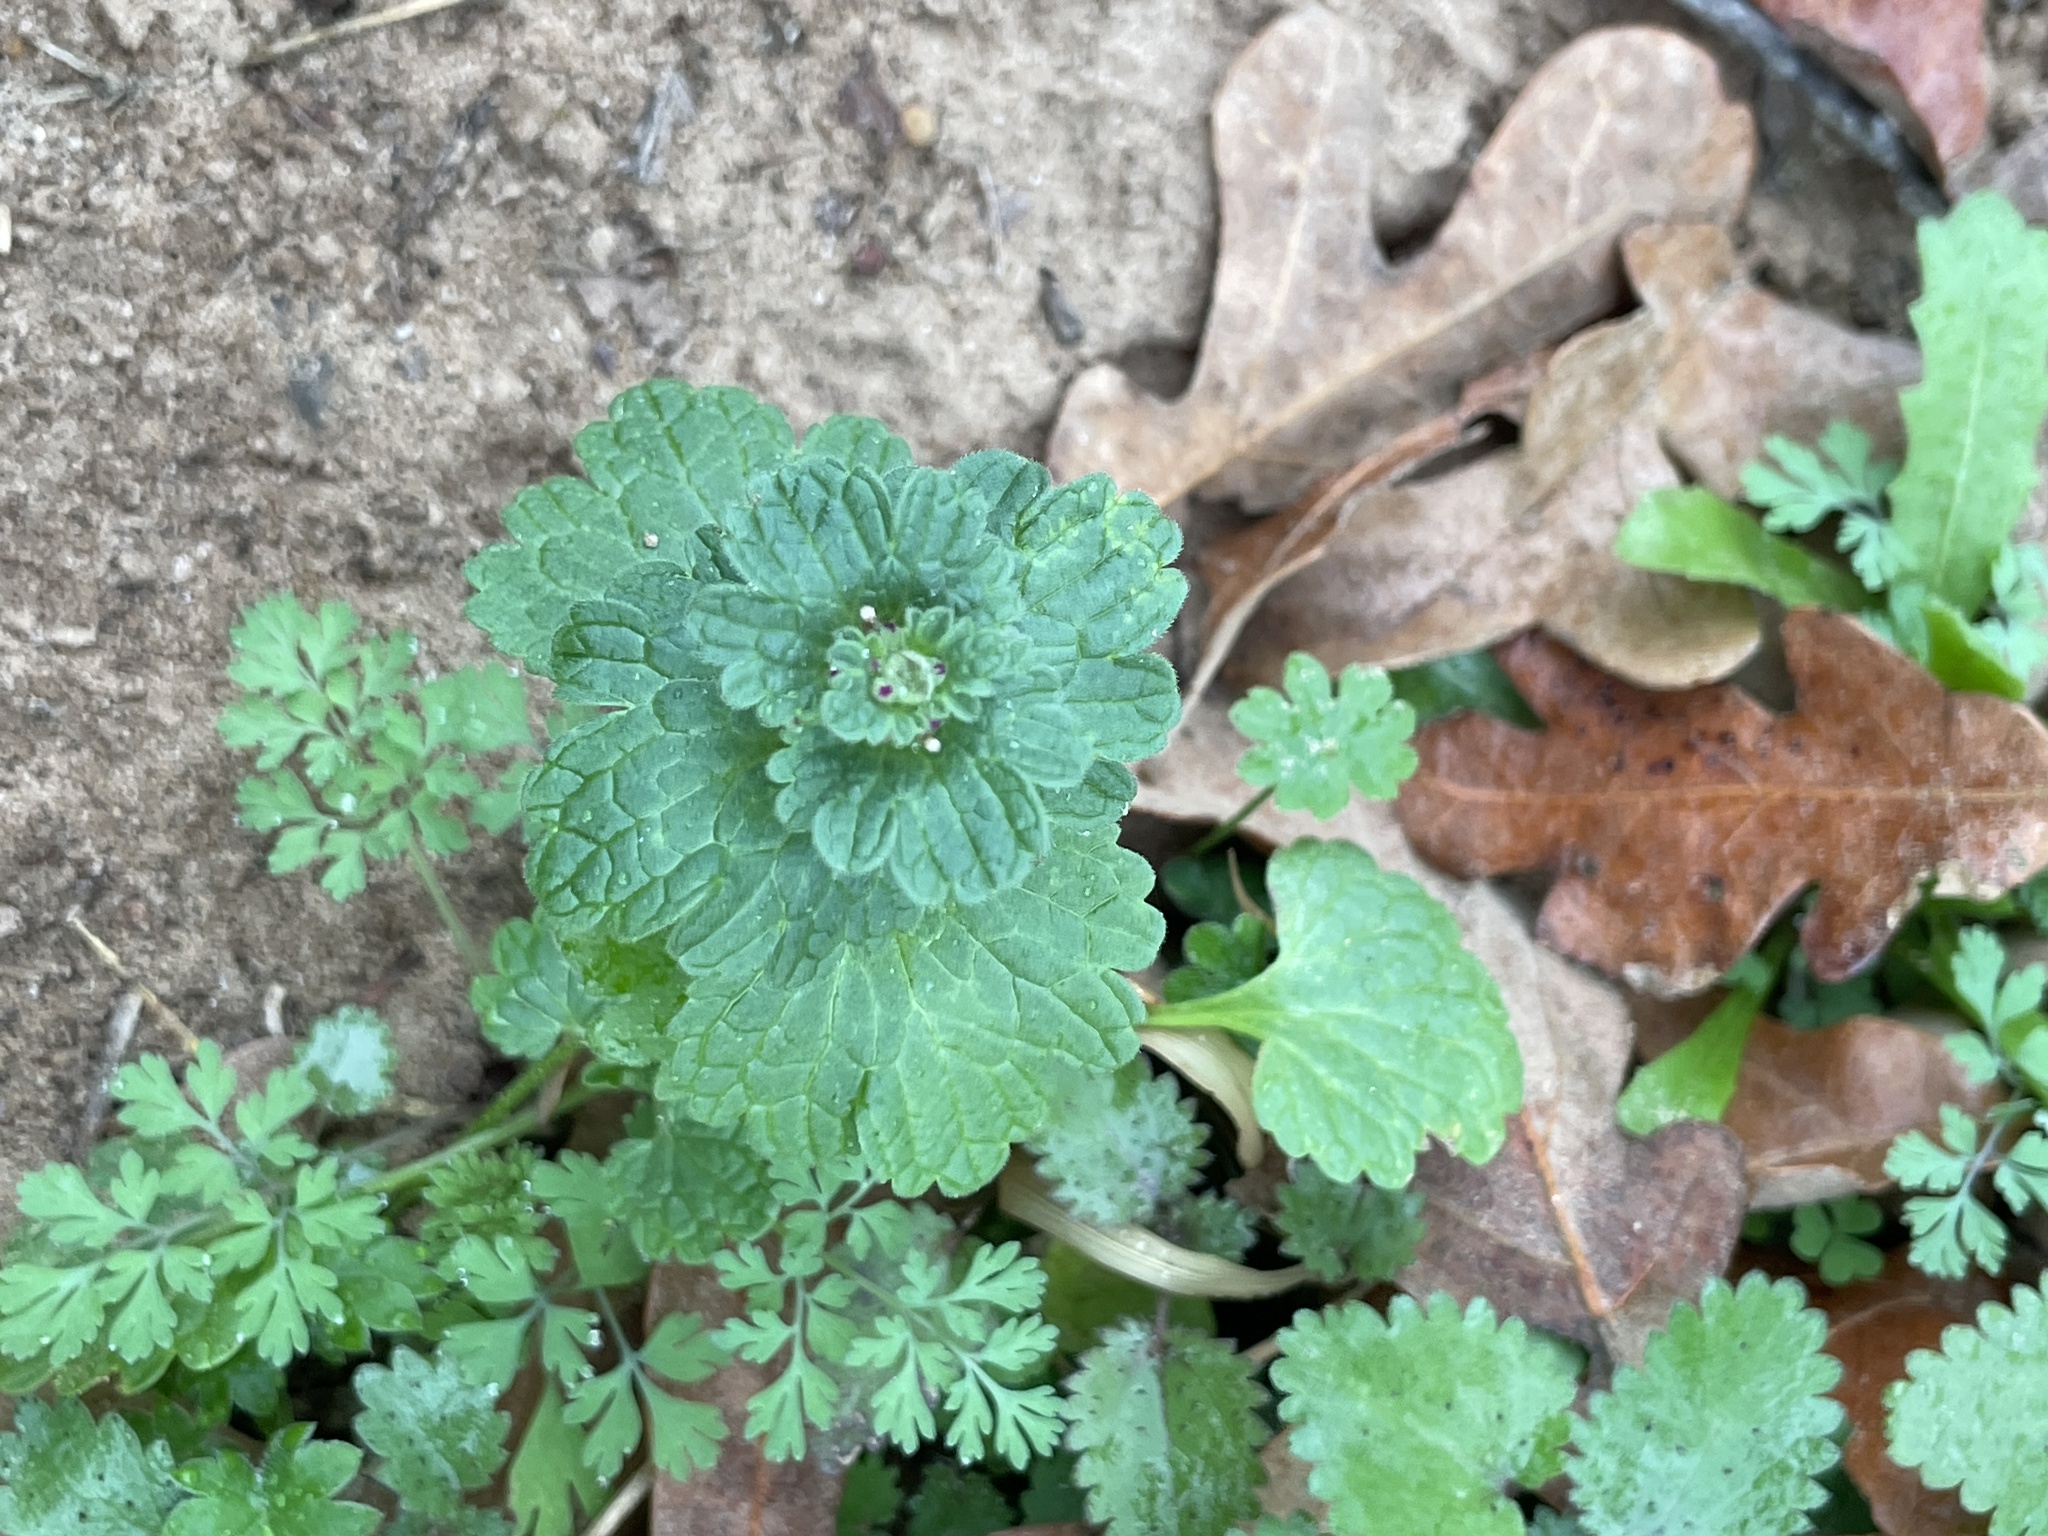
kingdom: Plantae
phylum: Tracheophyta
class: Magnoliopsida
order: Lamiales
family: Lamiaceae
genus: Lamium
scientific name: Lamium amplexicaule
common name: Henbit dead-nettle
